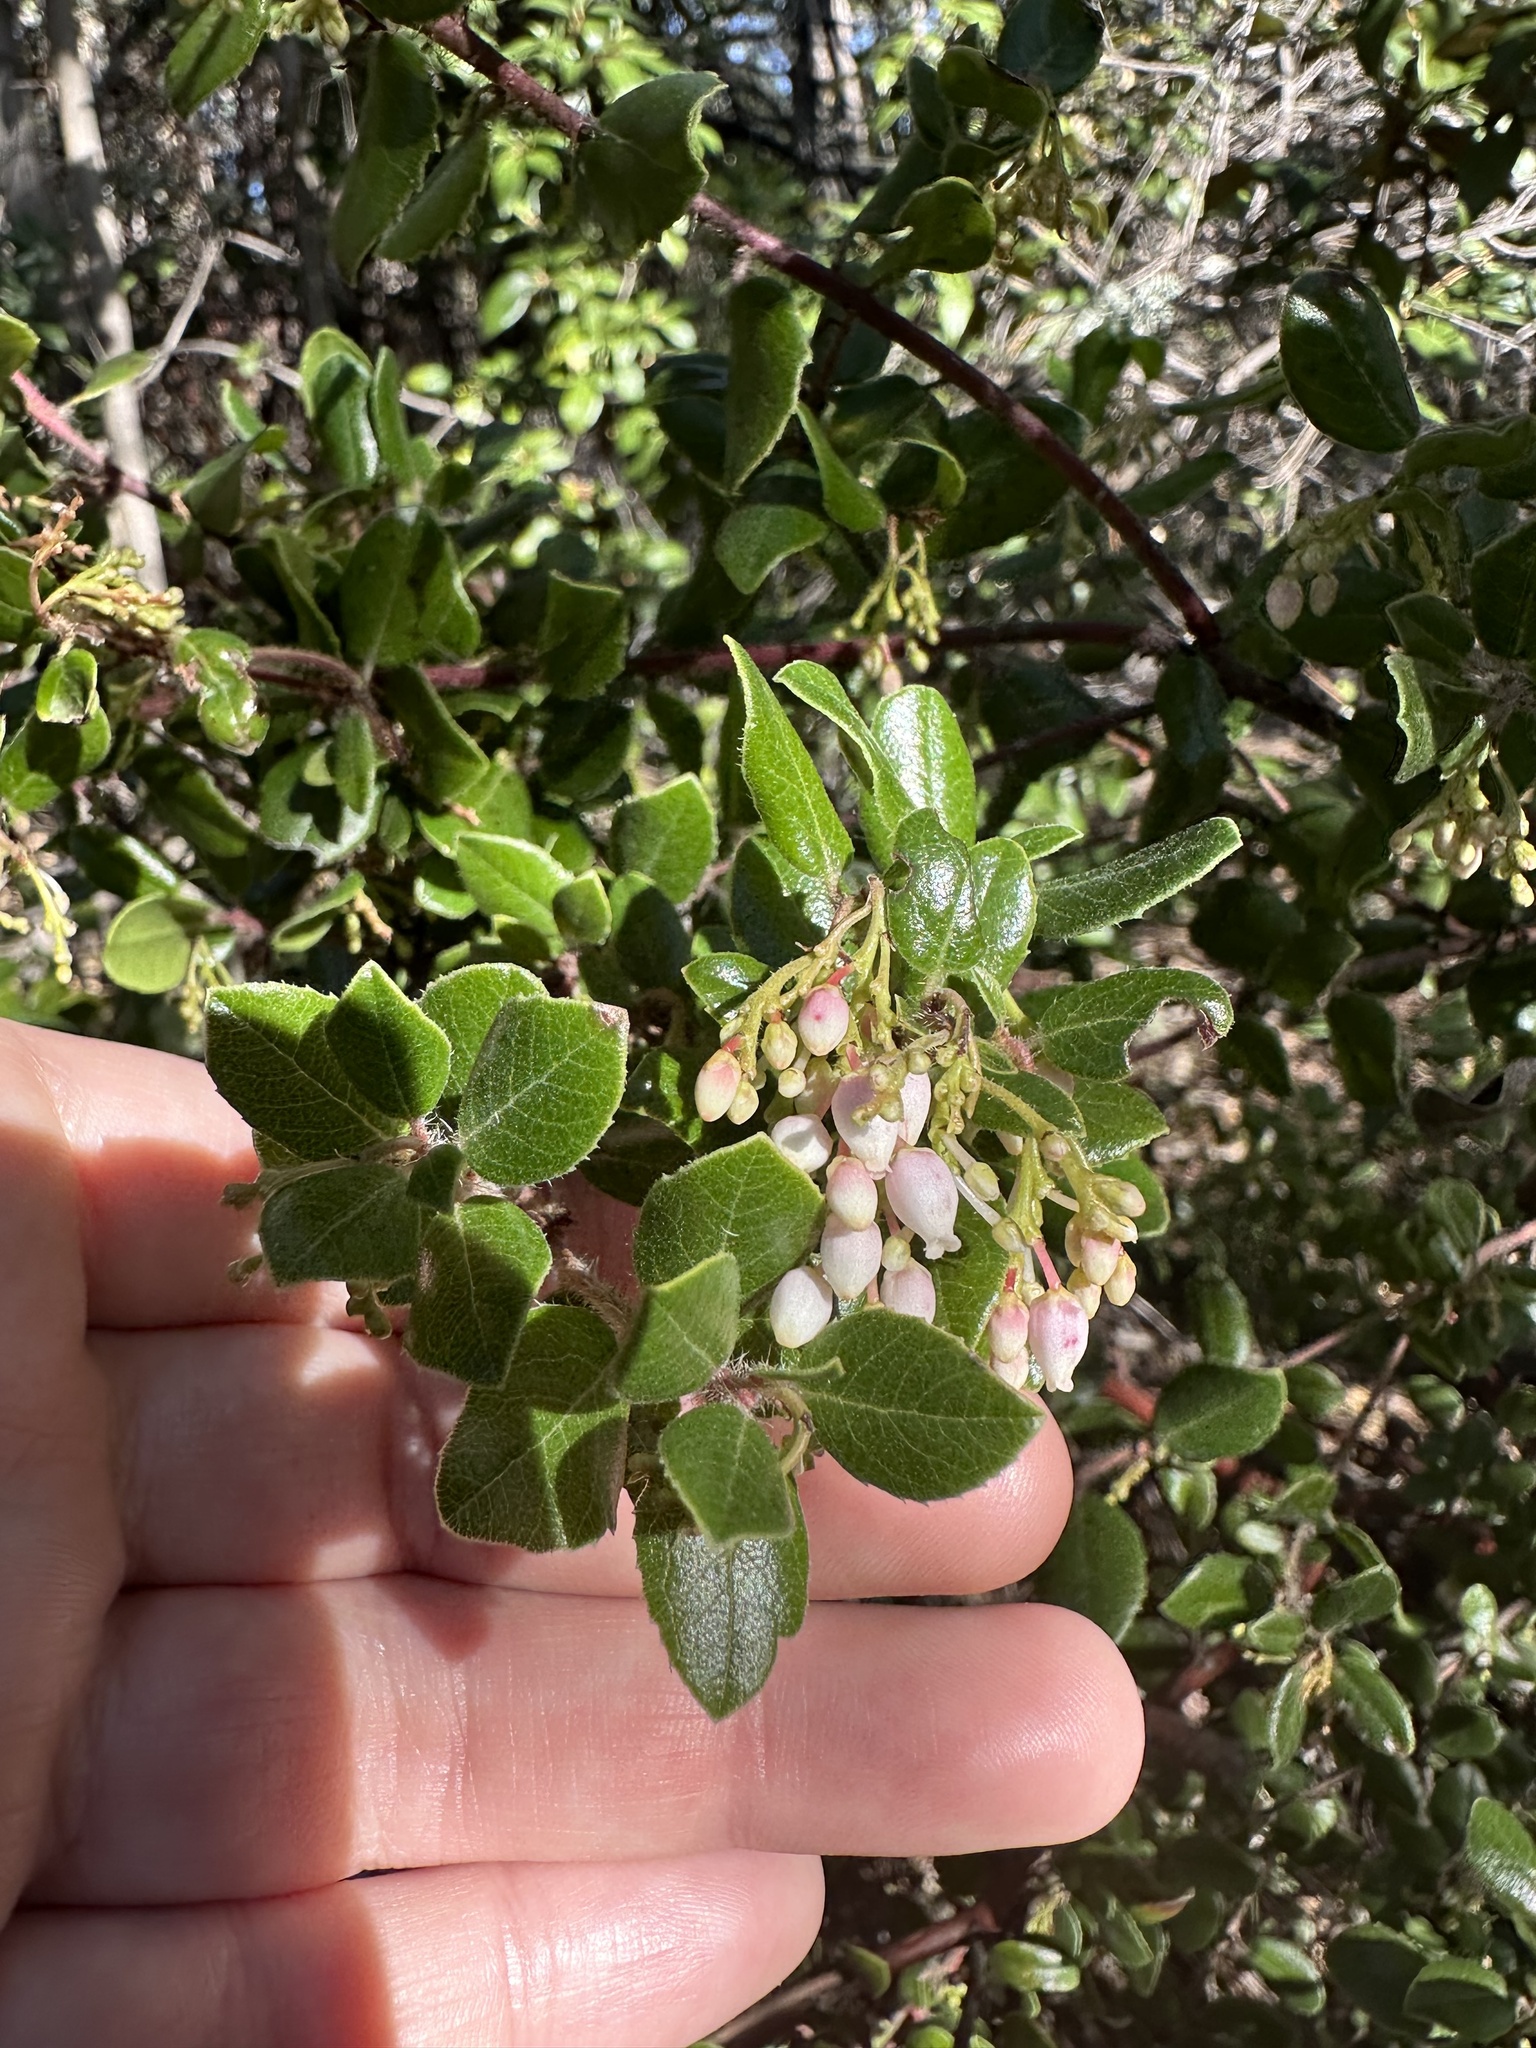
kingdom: Plantae
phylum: Tracheophyta
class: Magnoliopsida
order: Ericales
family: Ericaceae
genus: Arctostaphylos
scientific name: Arctostaphylos nummularia
